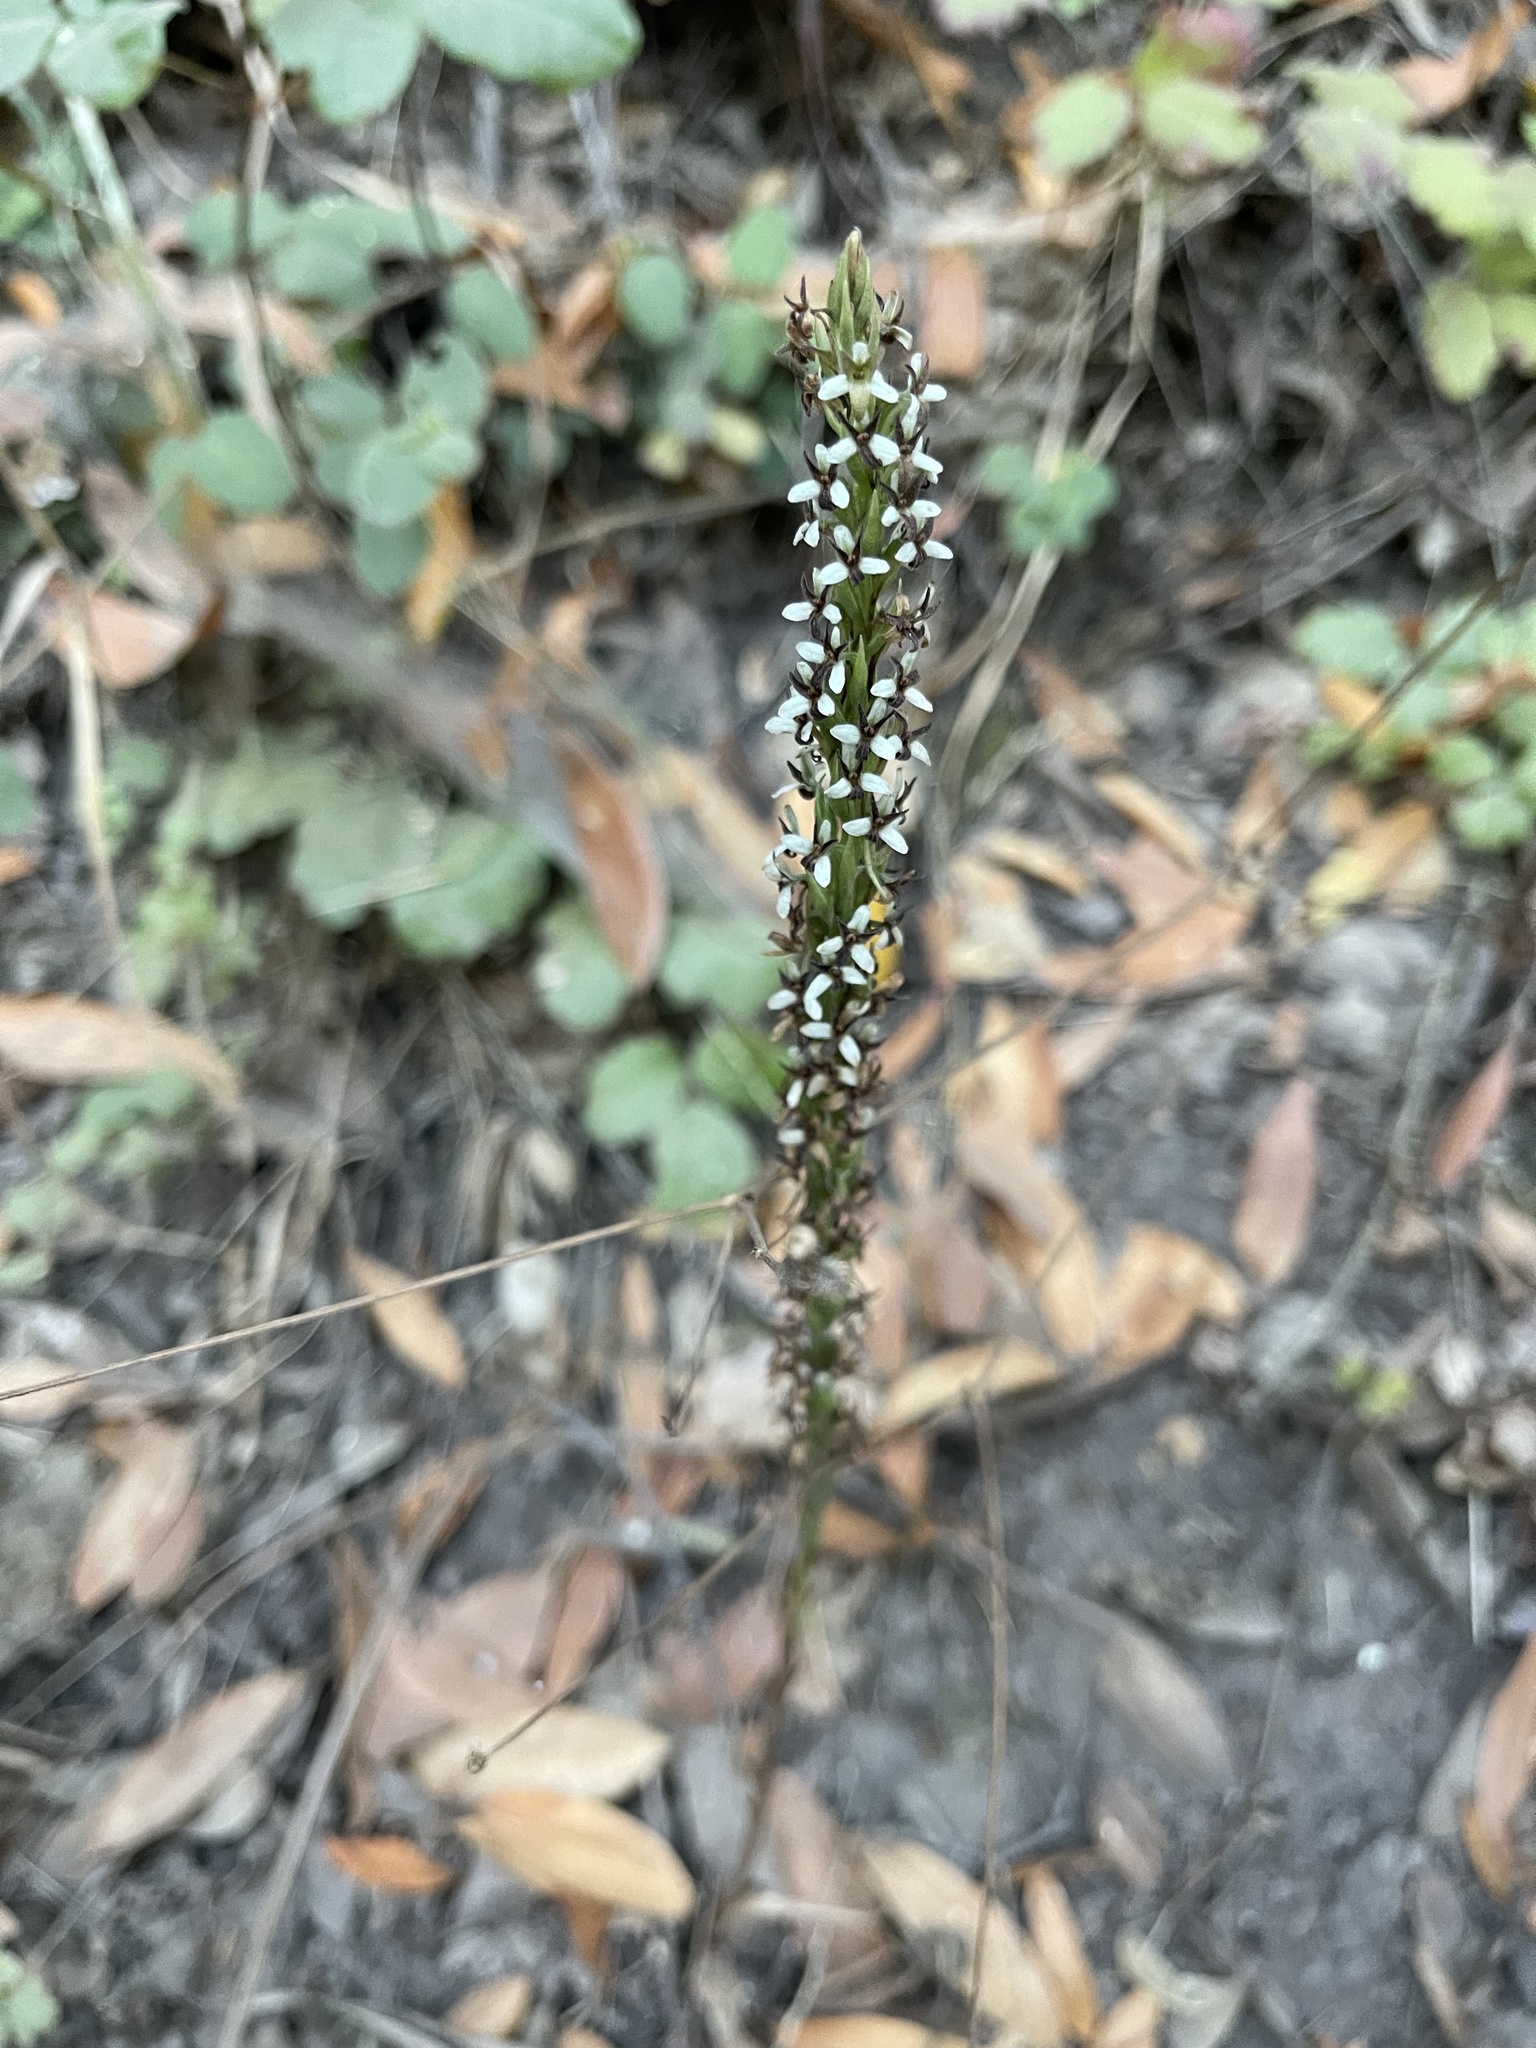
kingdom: Plantae
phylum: Tracheophyta
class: Liliopsida
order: Asparagales
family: Orchidaceae
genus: Platanthera
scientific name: Platanthera elegans
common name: Coast piperia
